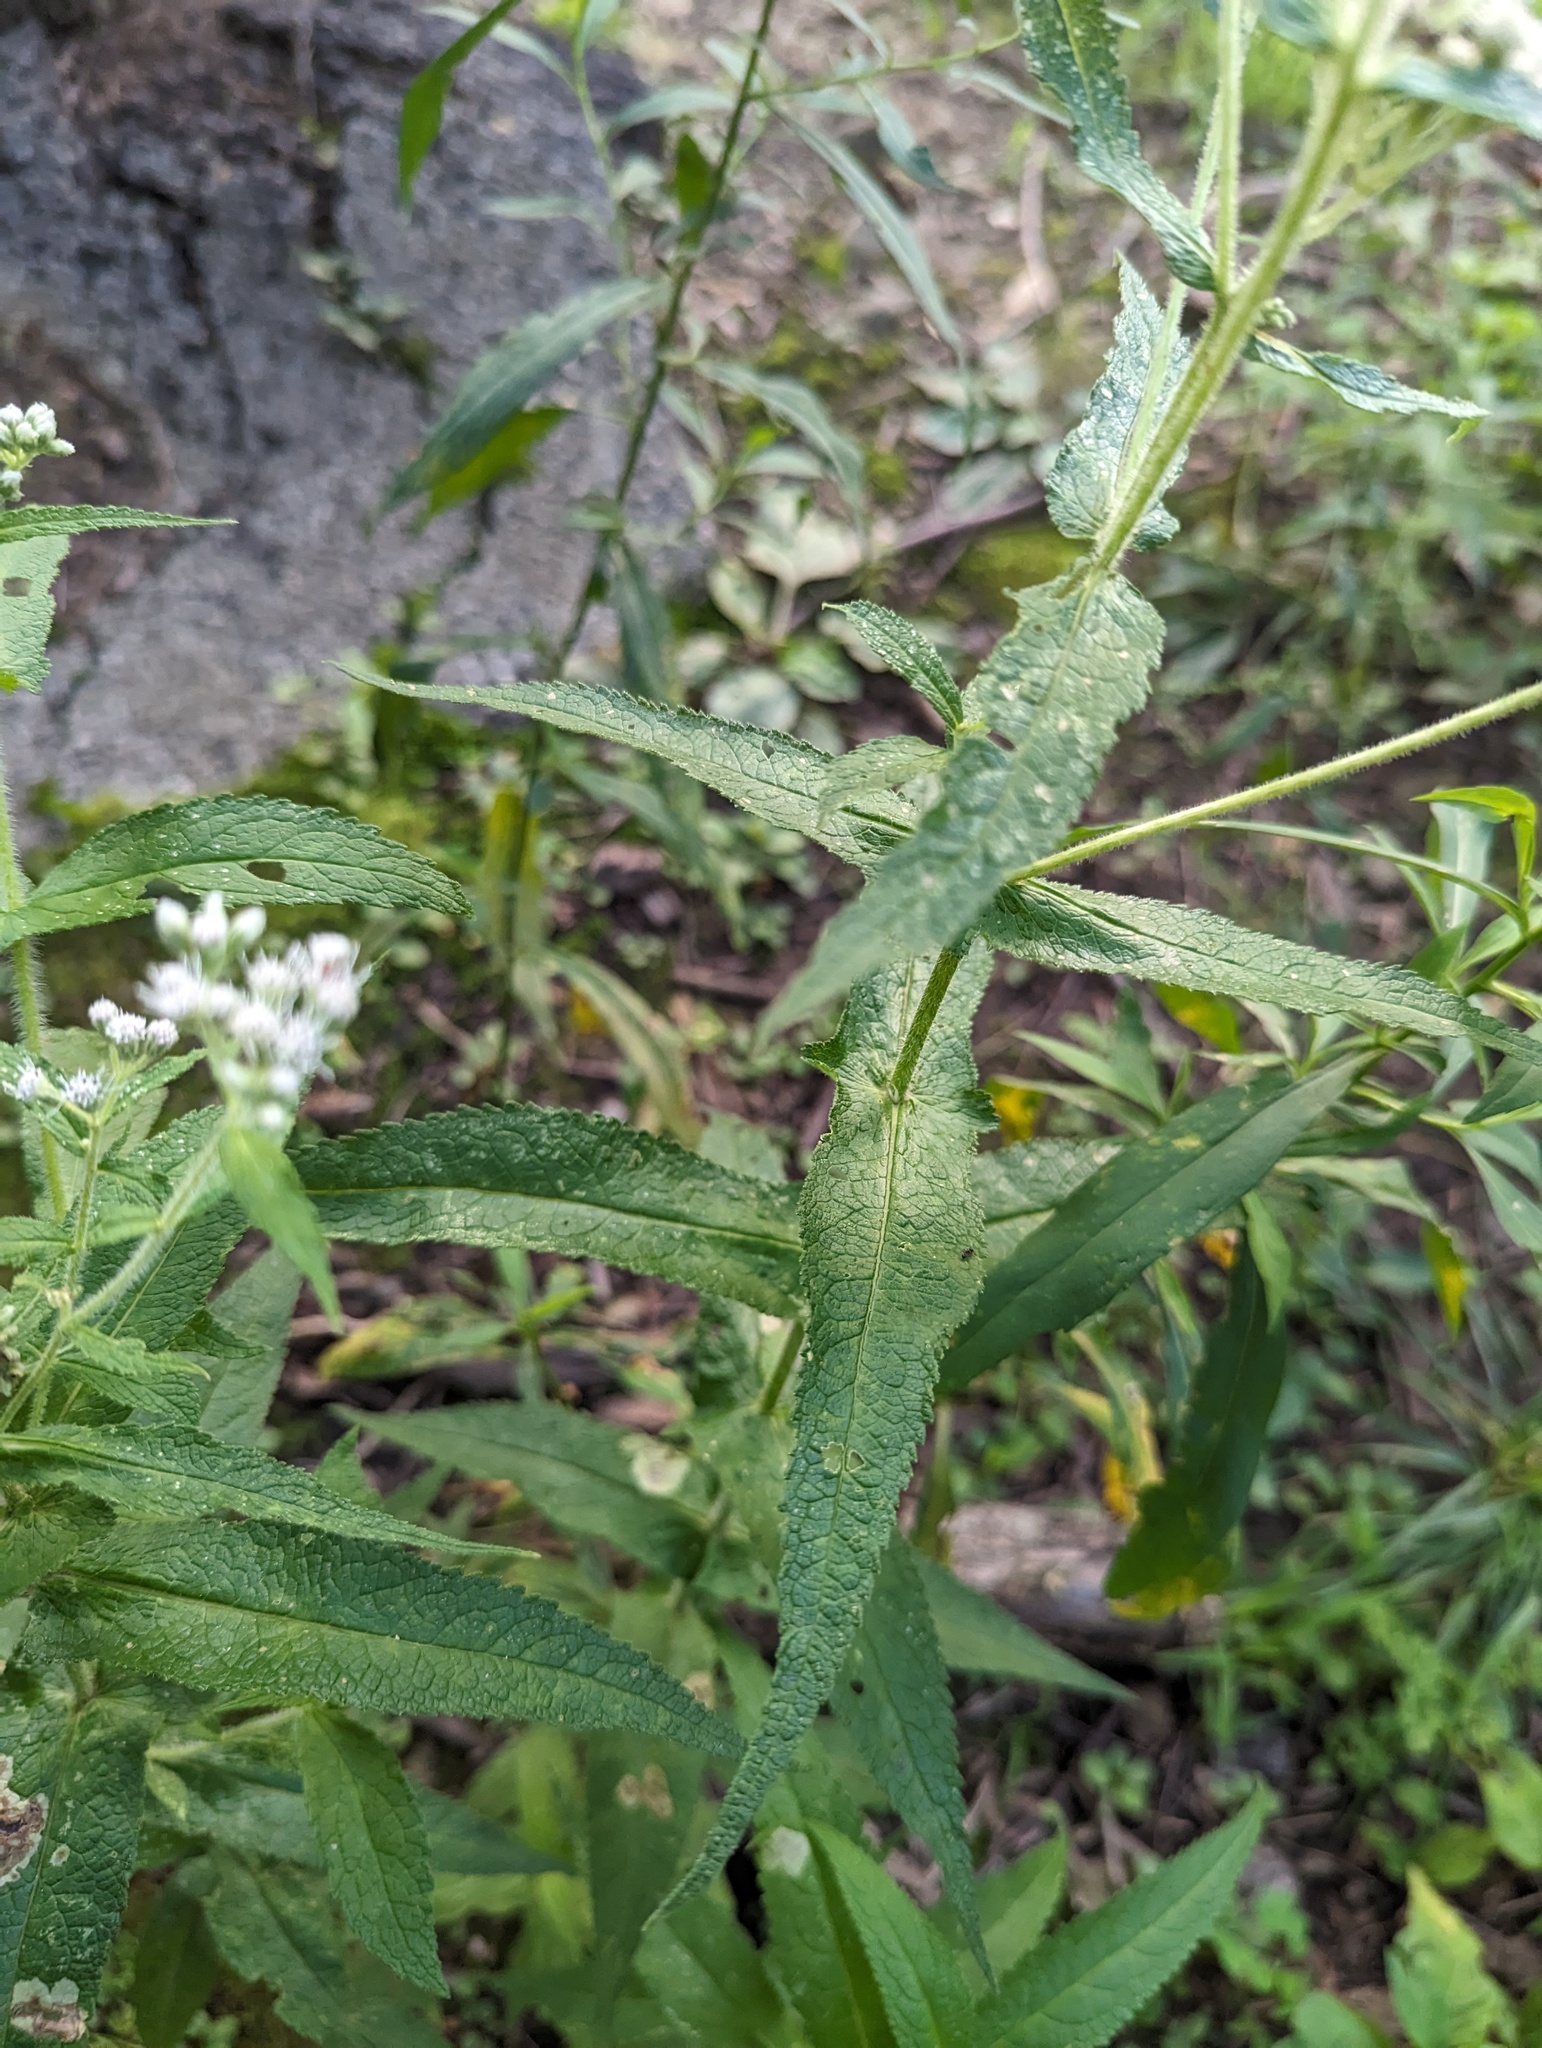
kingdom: Plantae
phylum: Tracheophyta
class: Magnoliopsida
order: Asterales
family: Asteraceae
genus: Eupatorium
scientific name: Eupatorium perfoliatum
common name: Boneset
